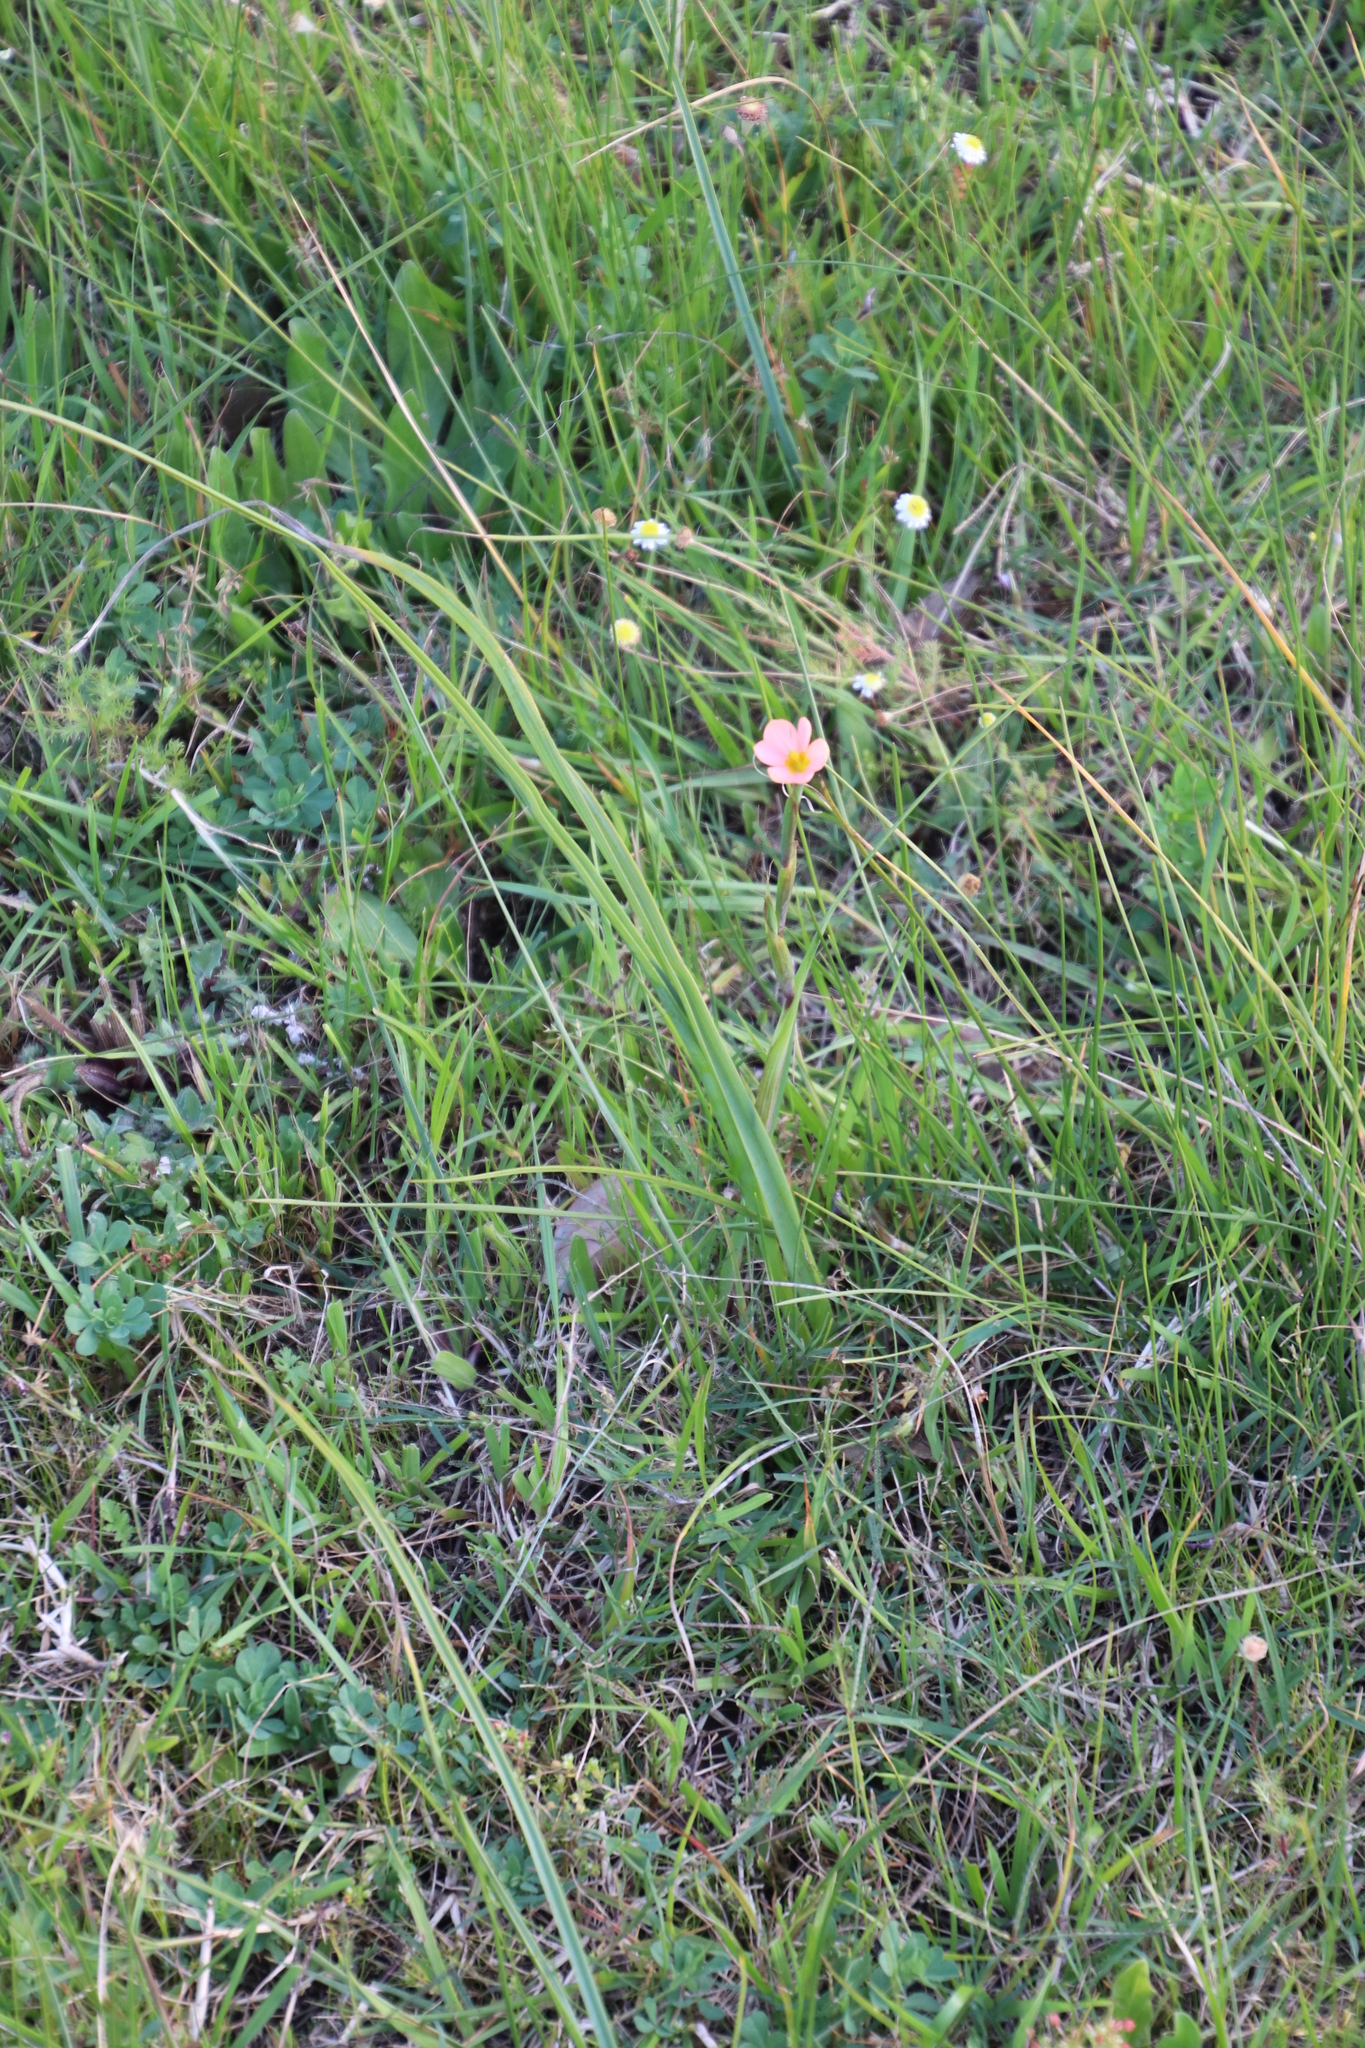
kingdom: Plantae
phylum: Tracheophyta
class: Liliopsida
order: Asparagales
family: Iridaceae
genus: Moraea
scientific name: Moraea miniata
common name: Two-leaf cape-tulip
